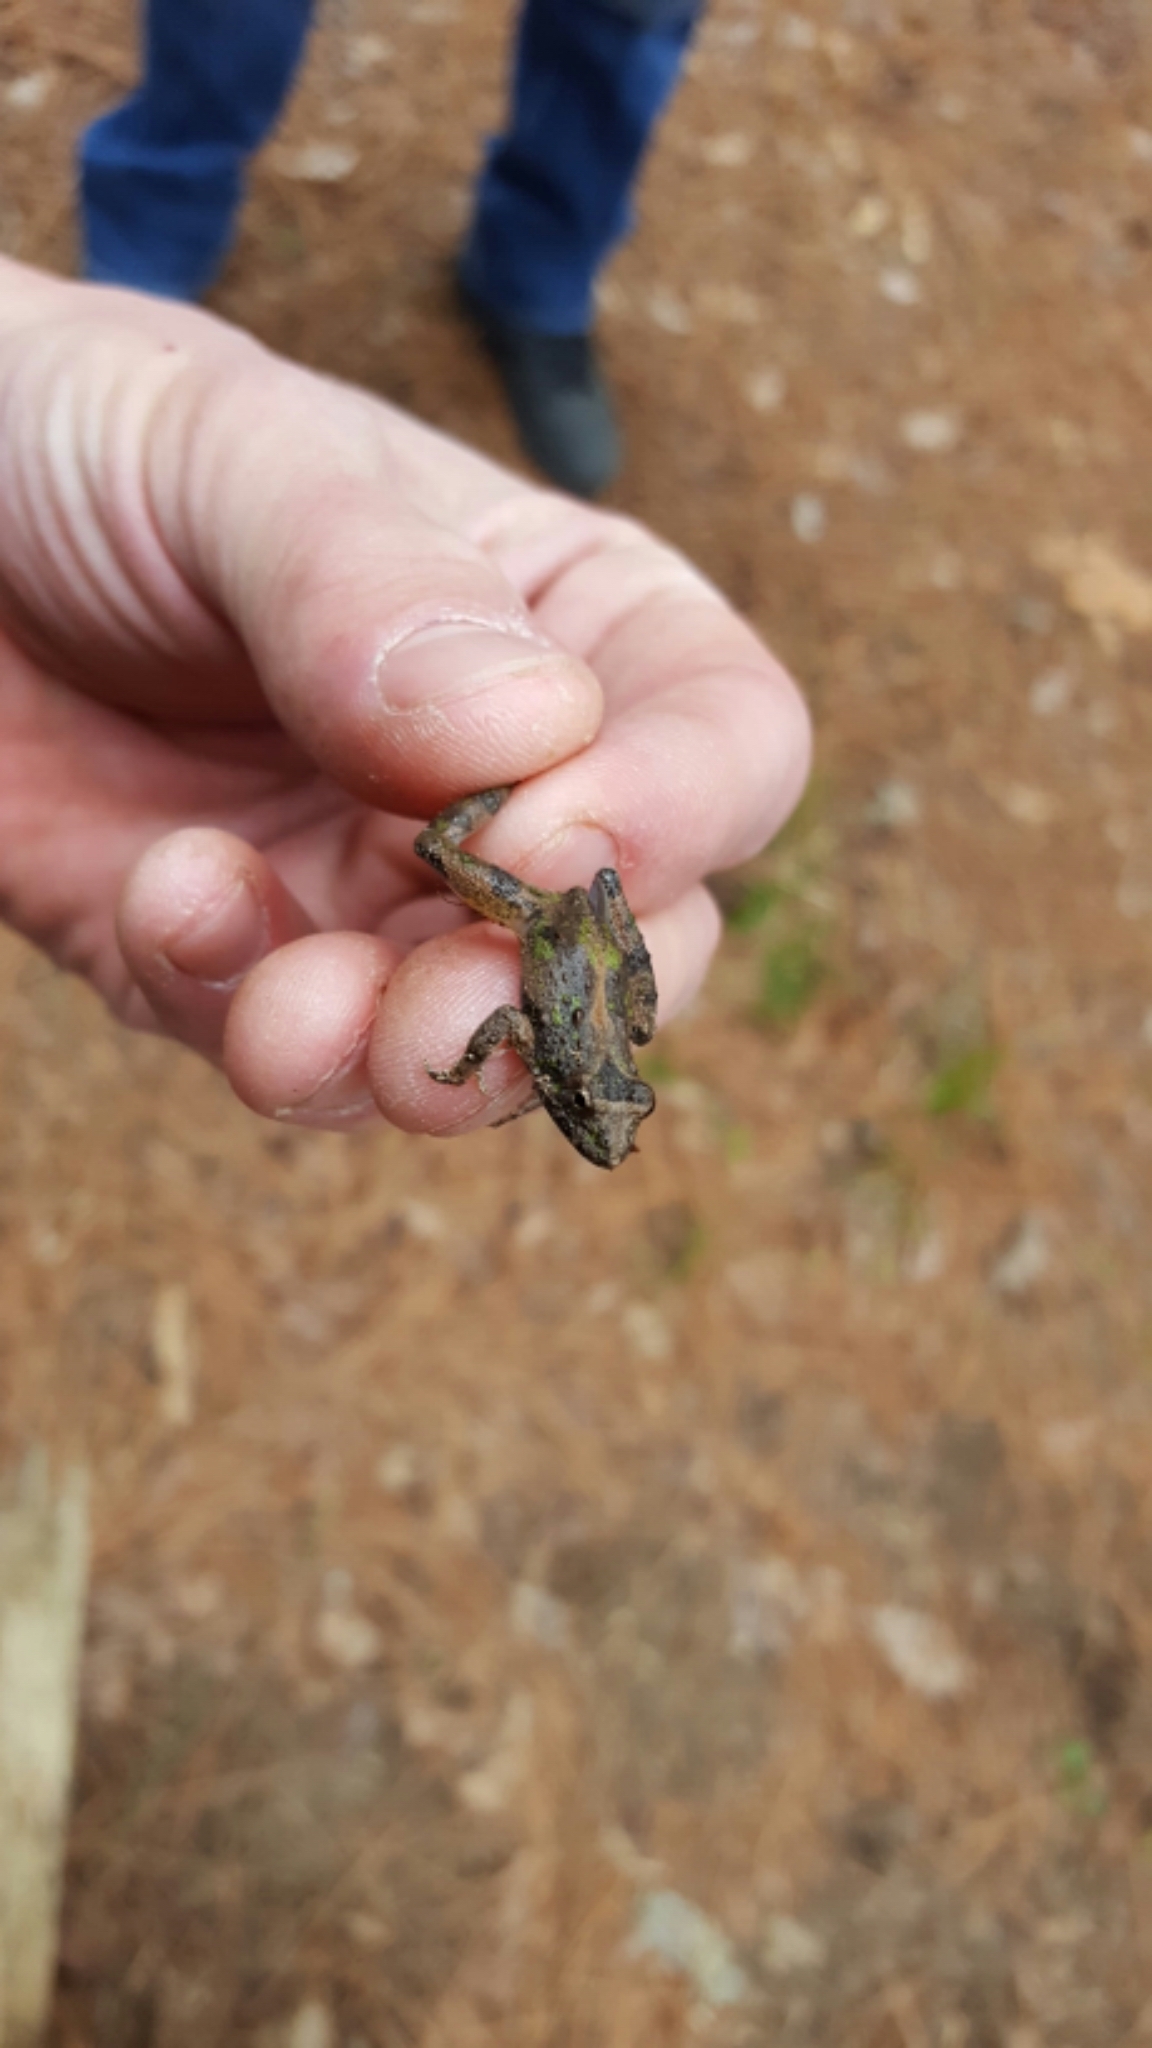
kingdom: Animalia
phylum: Chordata
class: Amphibia
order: Anura
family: Hylidae
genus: Acris
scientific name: Acris blanchardi
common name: Blanchard's cricket frog
